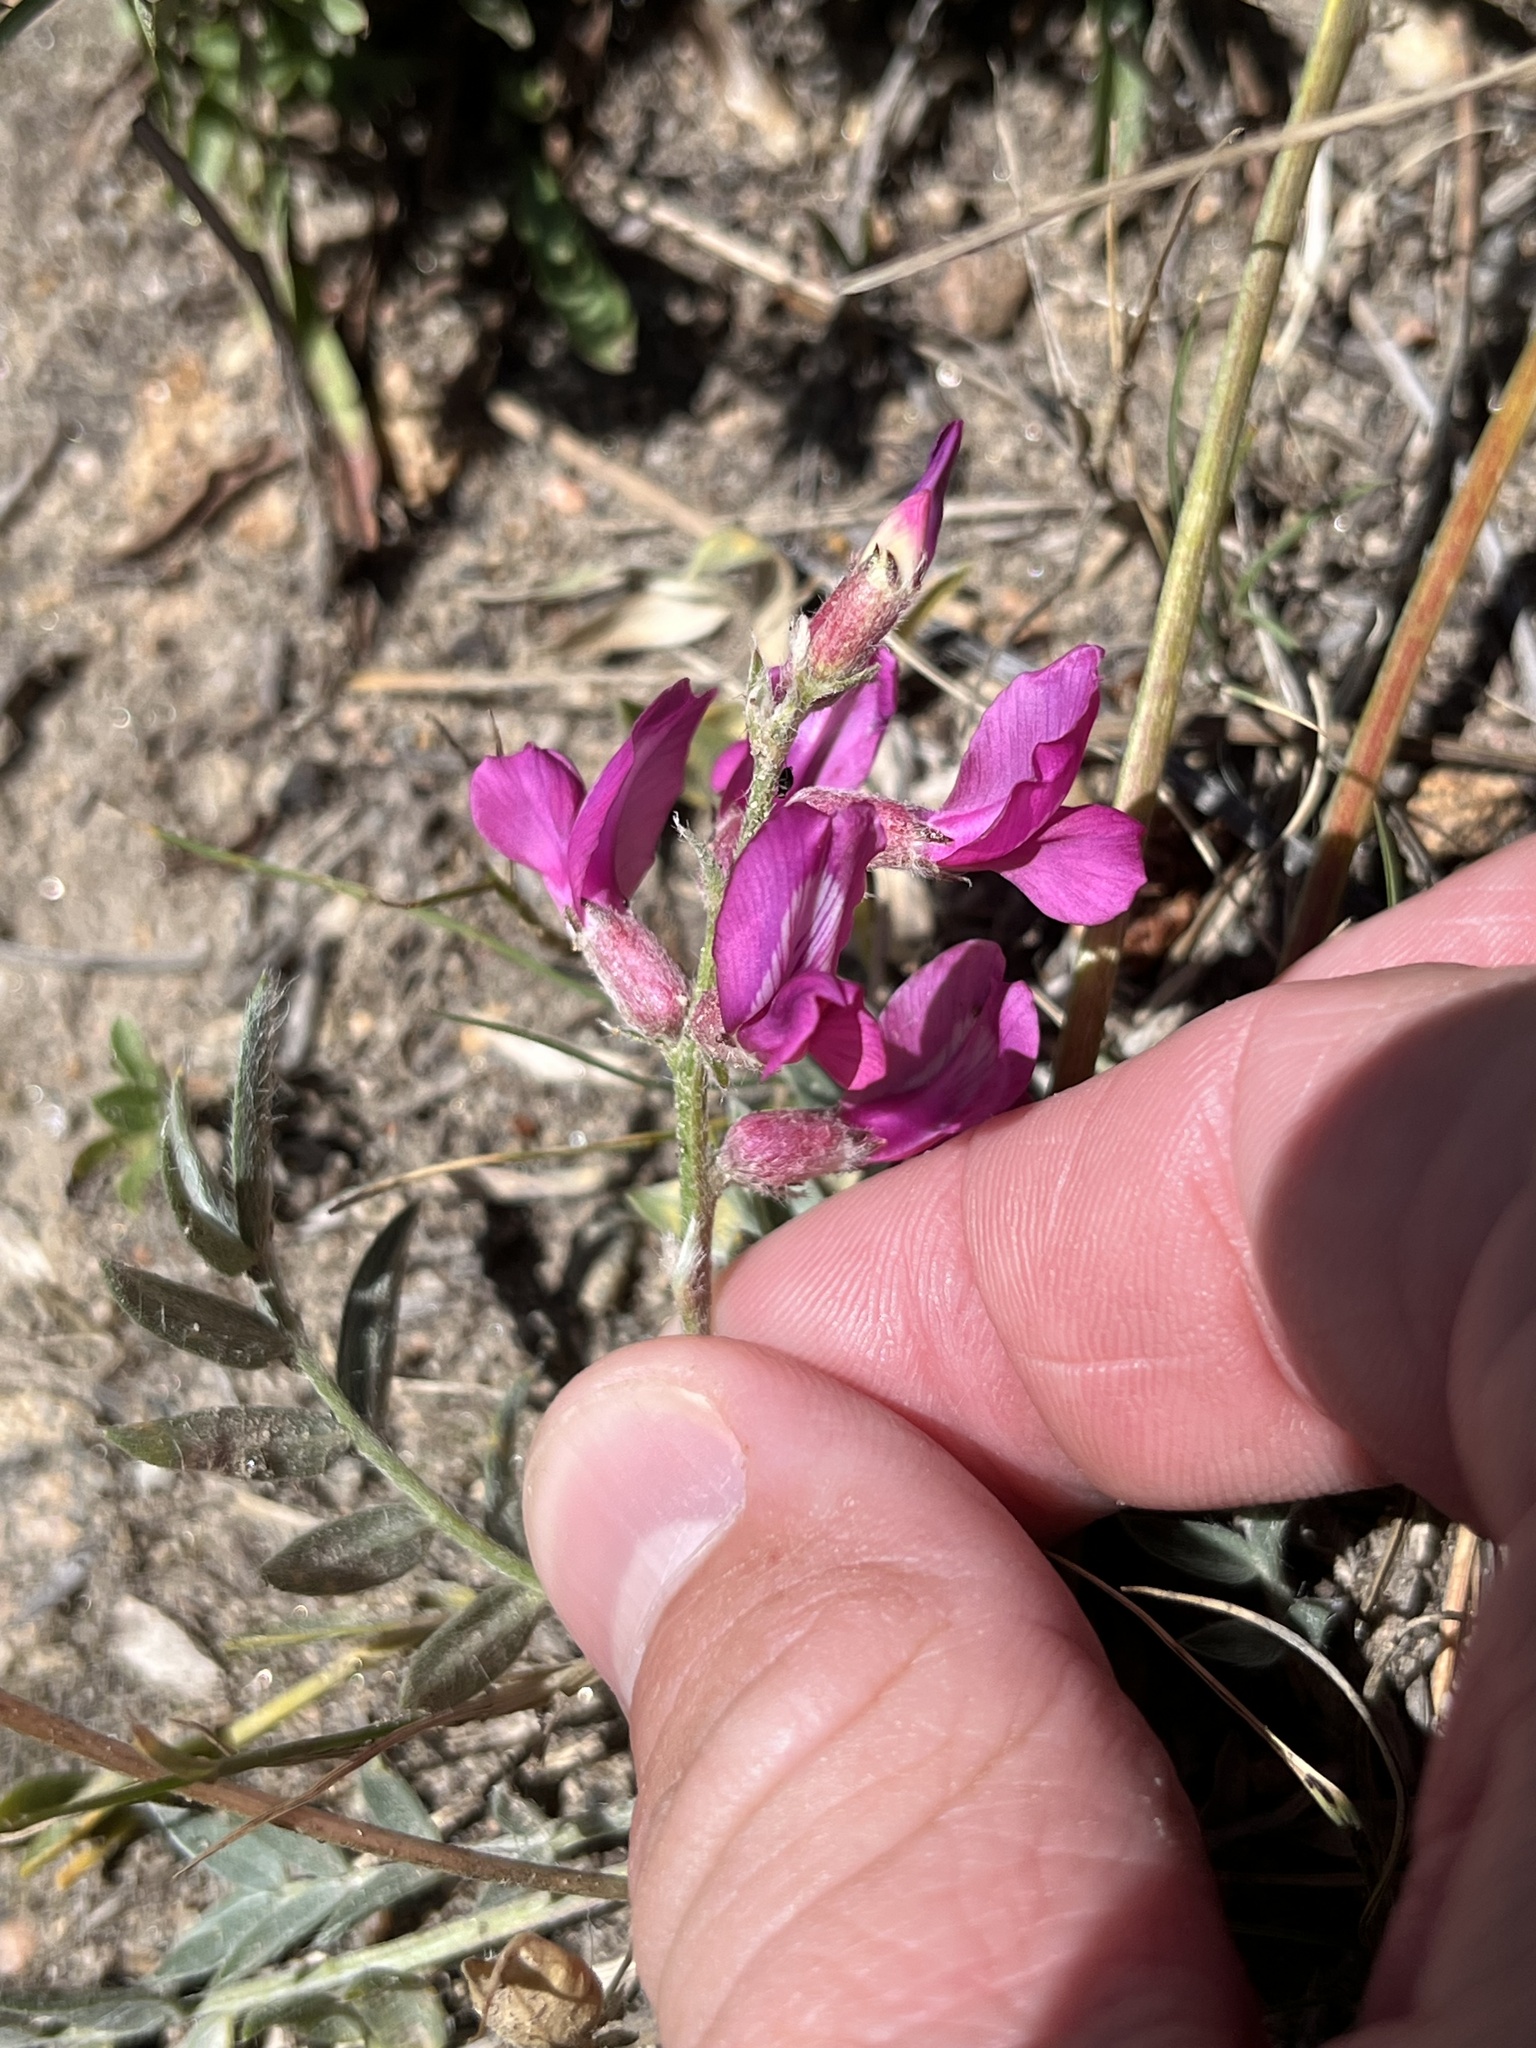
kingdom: Plantae
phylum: Tracheophyta
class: Magnoliopsida
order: Fabales
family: Fabaceae
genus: Oxytropis
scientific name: Oxytropis lambertii
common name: Purple locoweed
